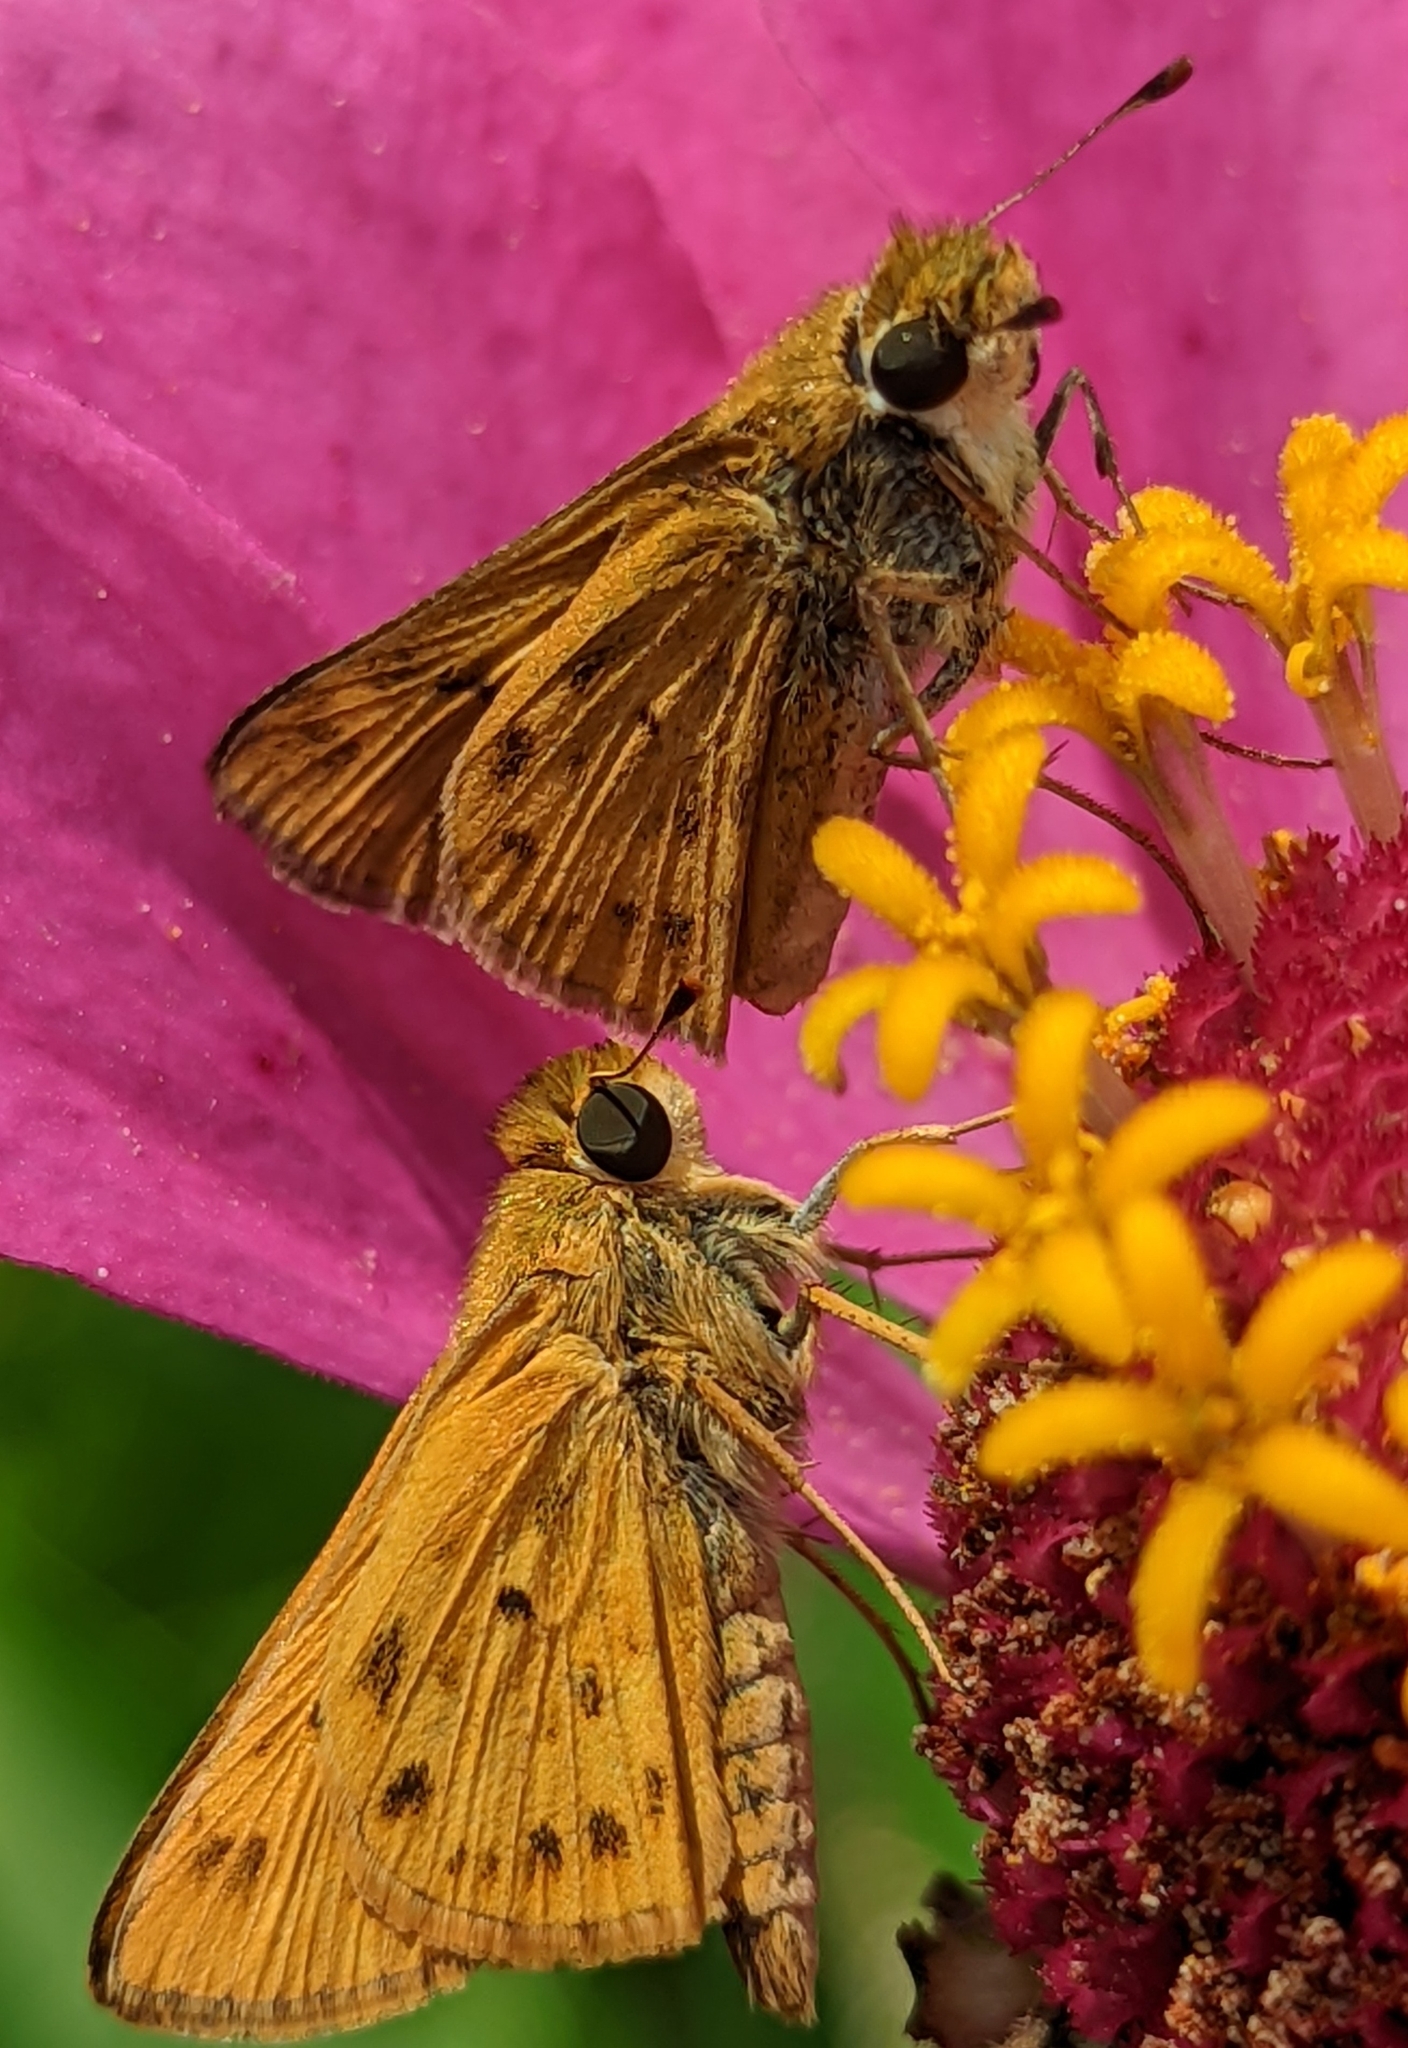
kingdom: Animalia
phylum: Arthropoda
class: Insecta
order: Lepidoptera
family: Hesperiidae
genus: Hylephila
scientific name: Hylephila phyleus
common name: Fiery skipper
